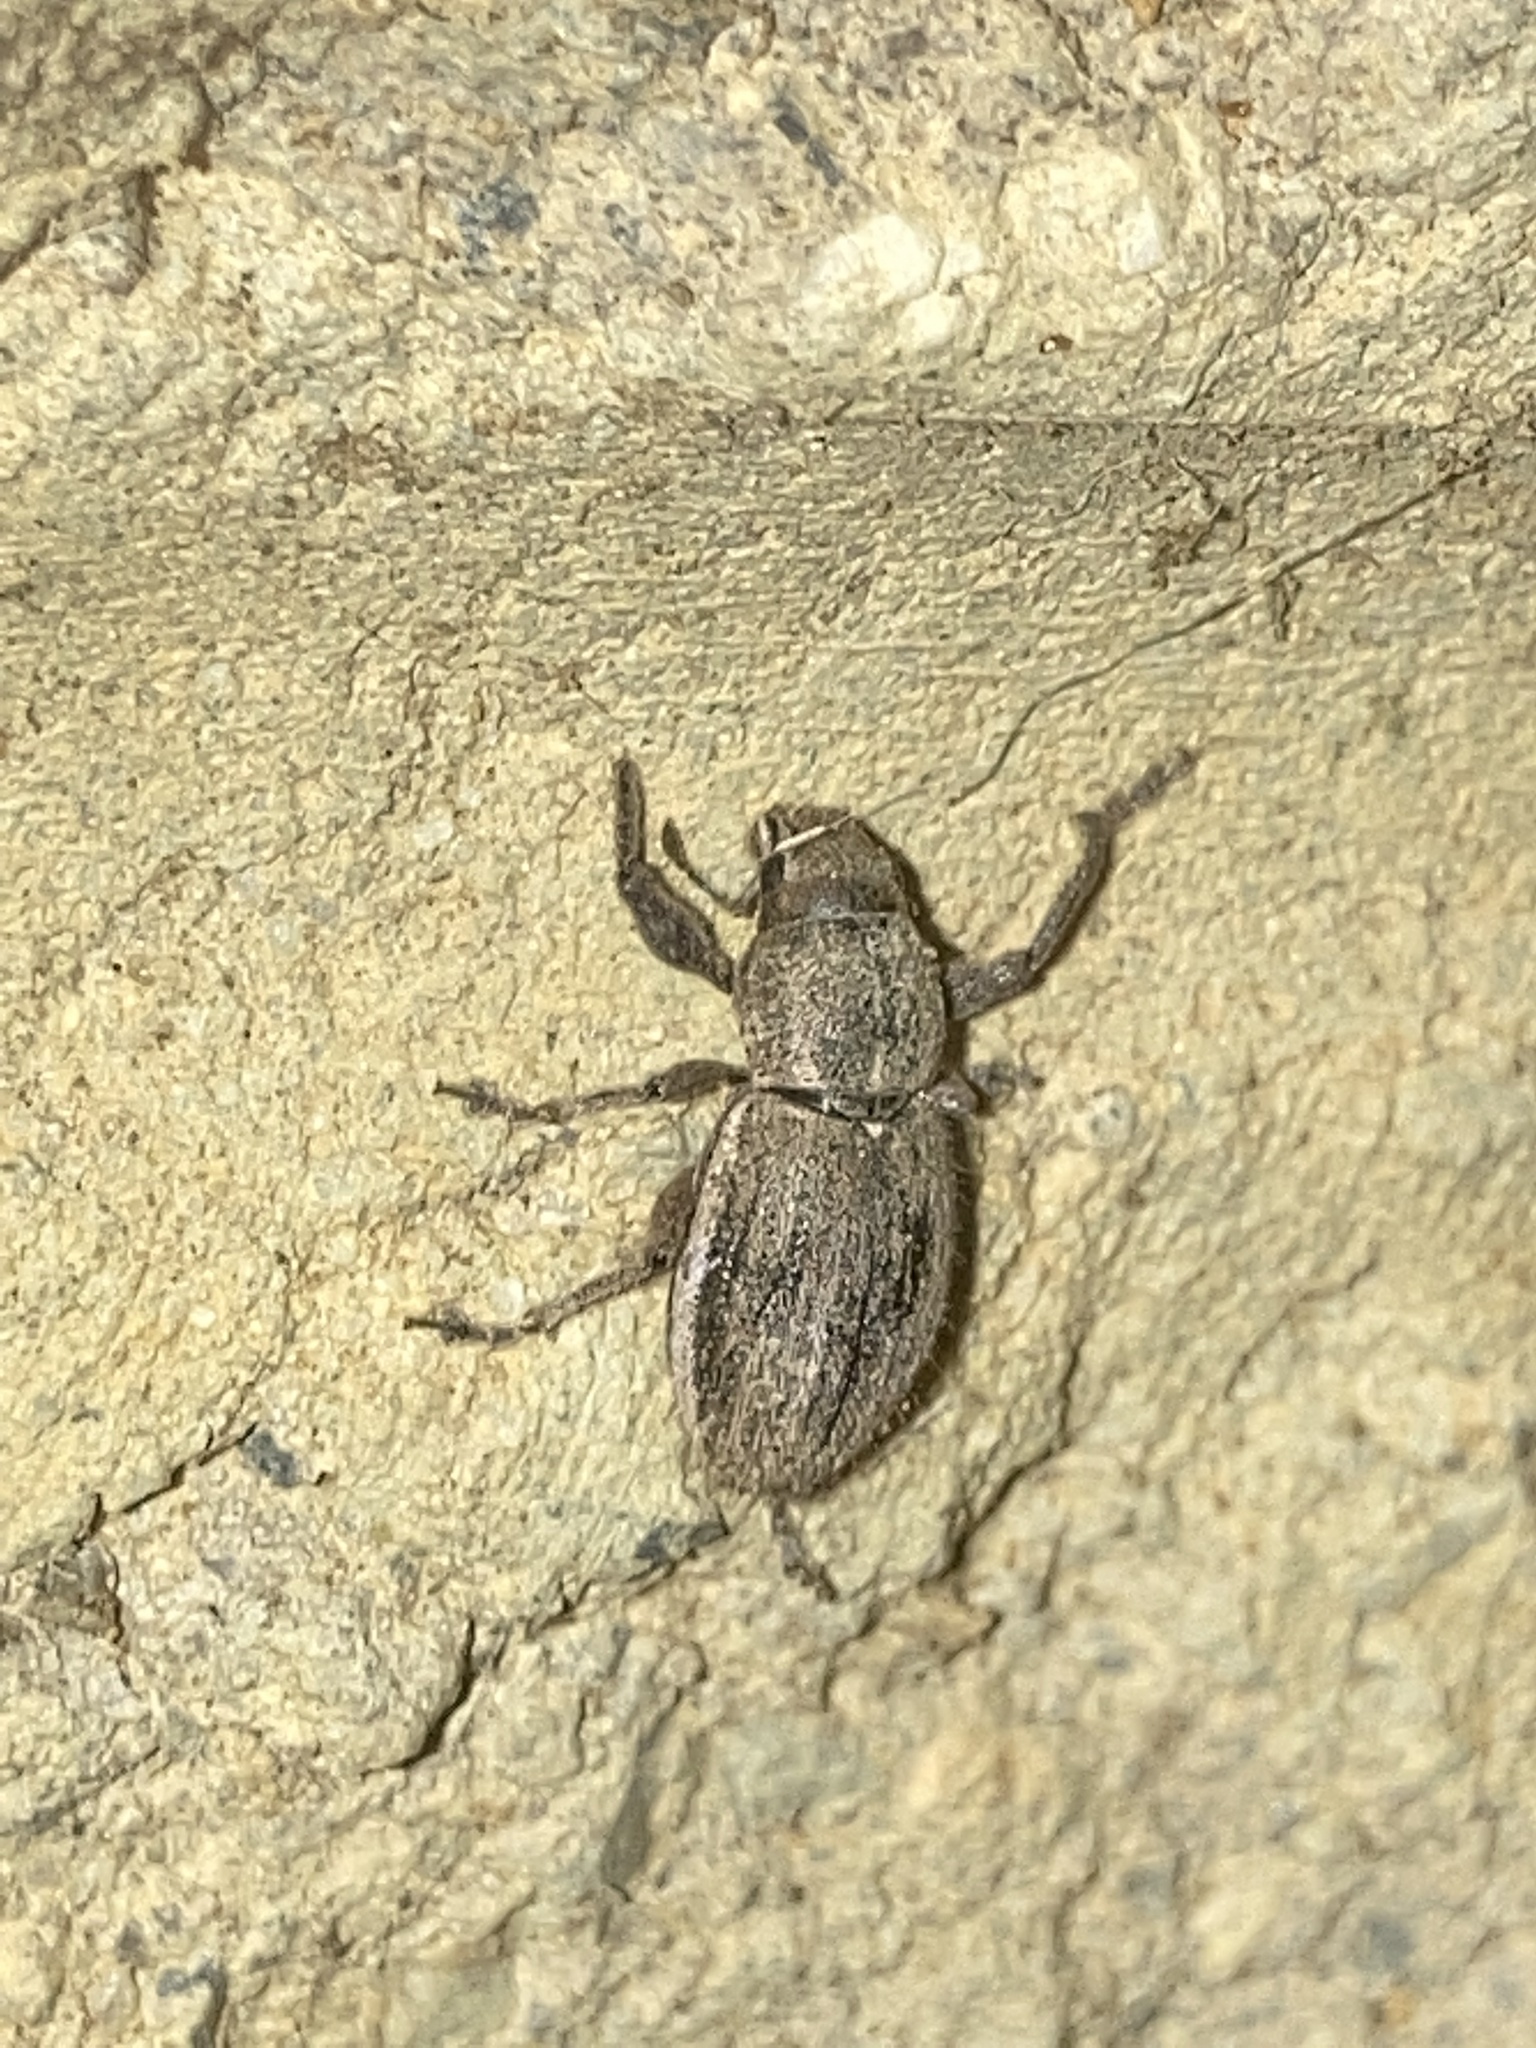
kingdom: Animalia
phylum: Arthropoda
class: Insecta
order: Coleoptera
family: Curculionidae
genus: Naupactus
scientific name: Naupactus leucoloma
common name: Whitefringed beetle
